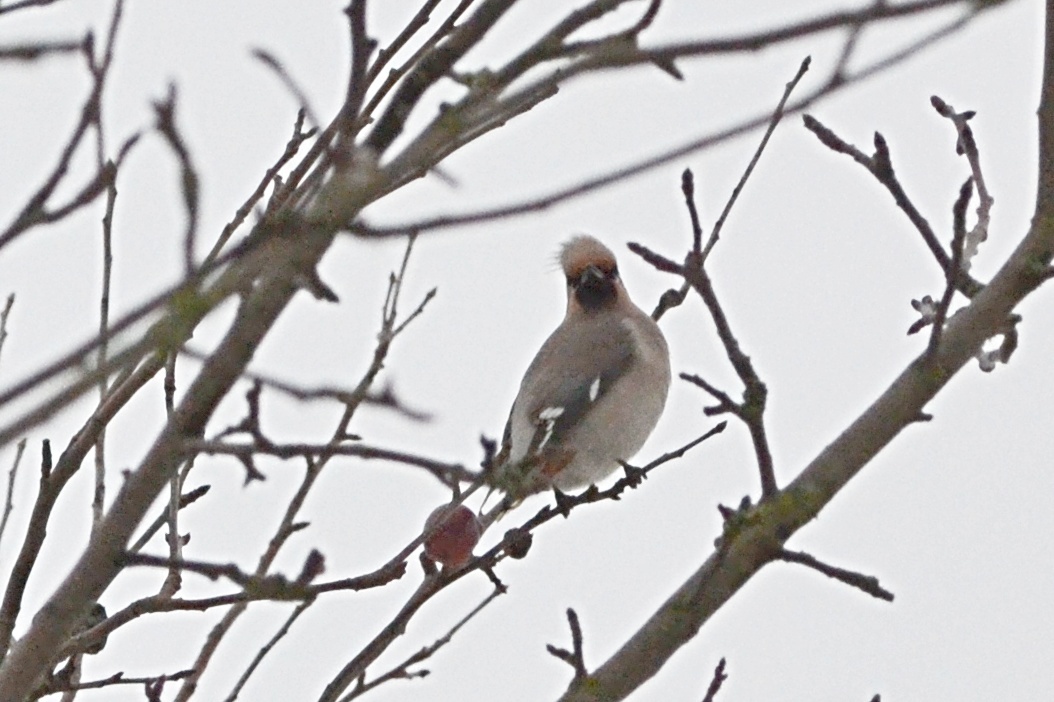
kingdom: Animalia
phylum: Chordata
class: Aves
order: Passeriformes
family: Bombycillidae
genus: Bombycilla
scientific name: Bombycilla garrulus
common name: Bohemian waxwing
